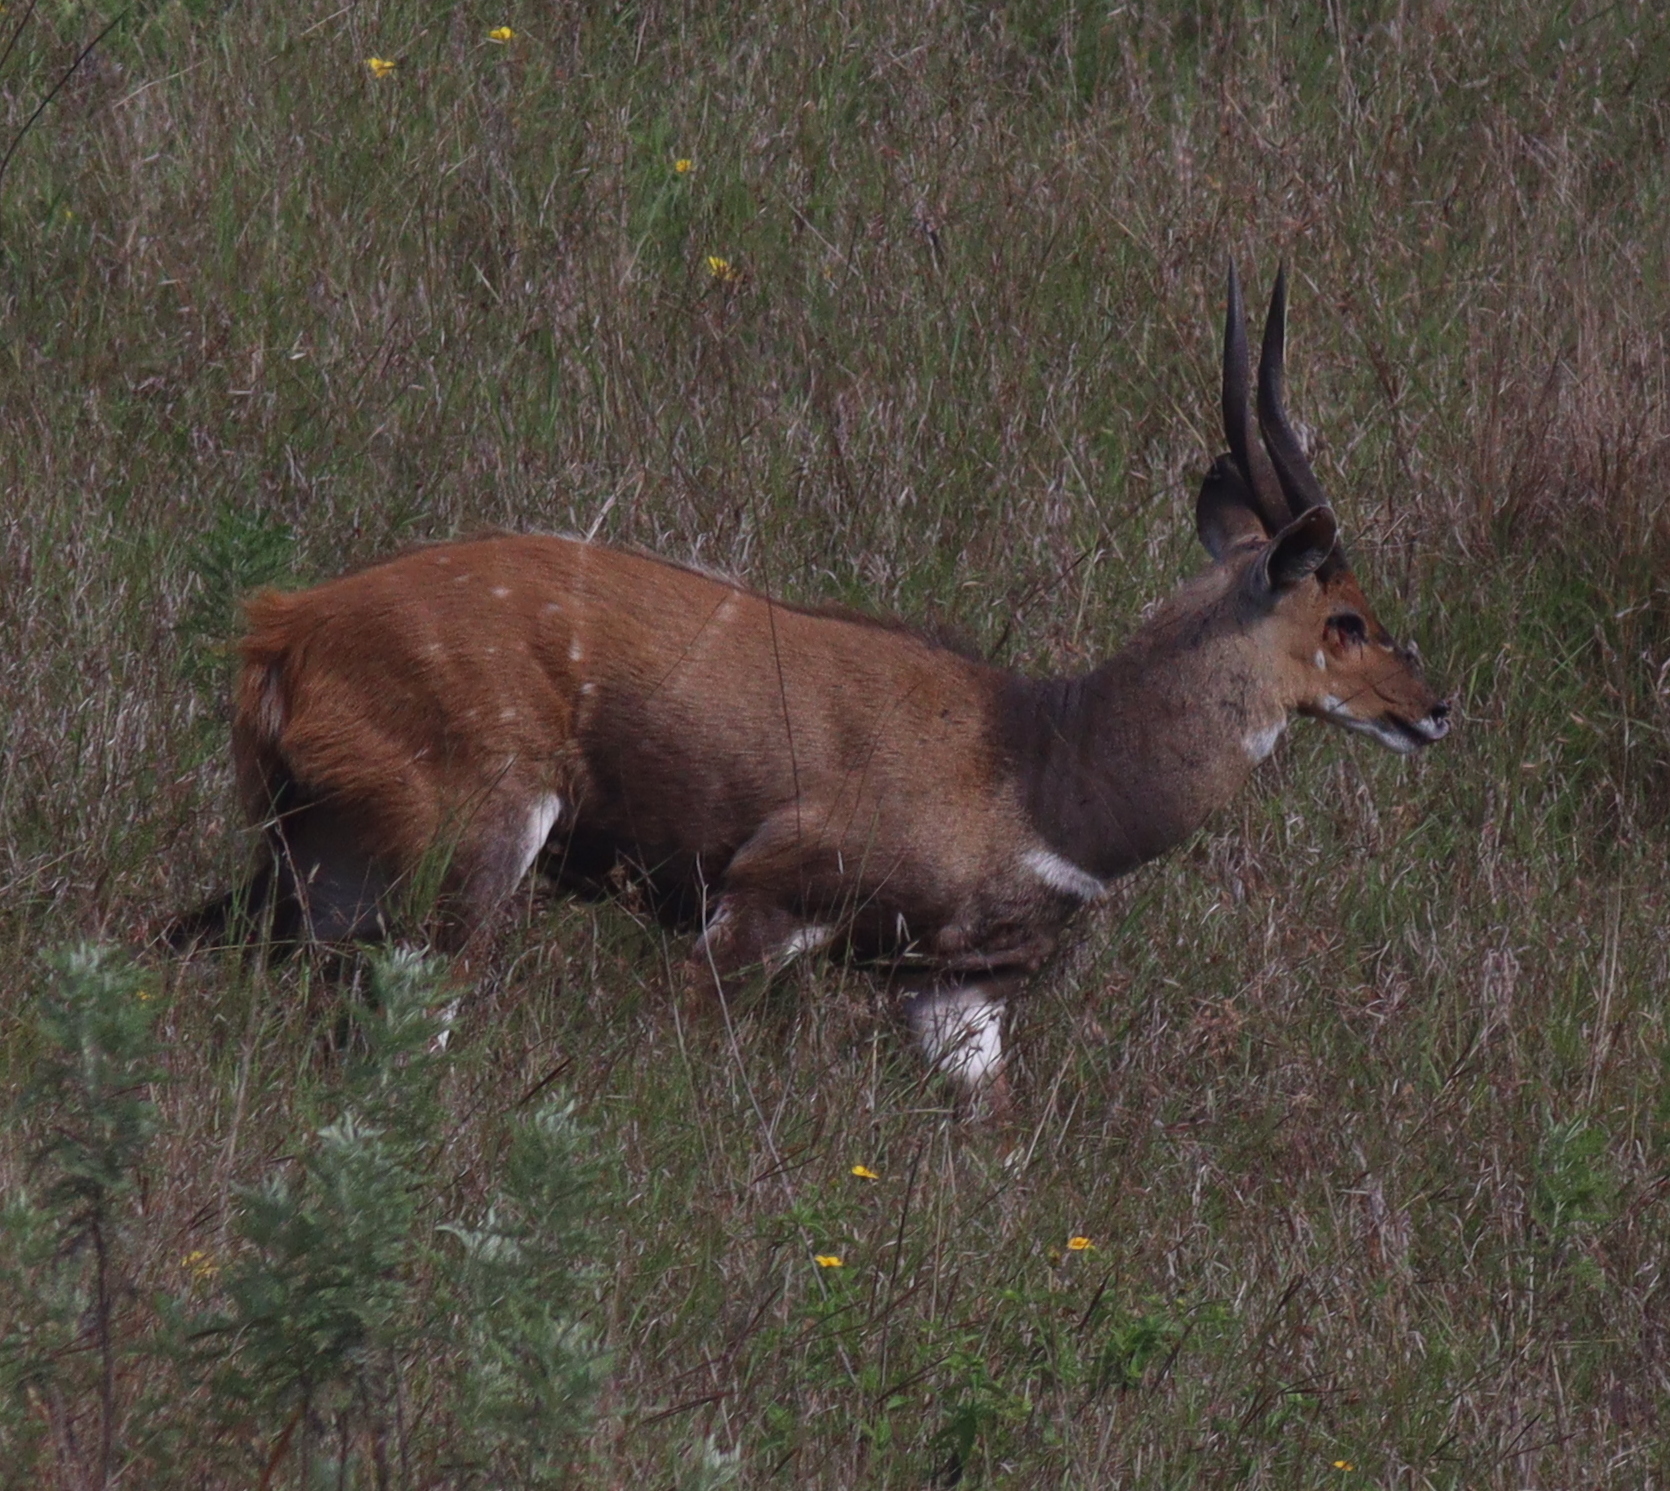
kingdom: Animalia
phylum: Chordata
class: Mammalia
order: Artiodactyla
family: Bovidae
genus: Tragelaphus
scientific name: Tragelaphus scriptus
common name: Bushbuck
